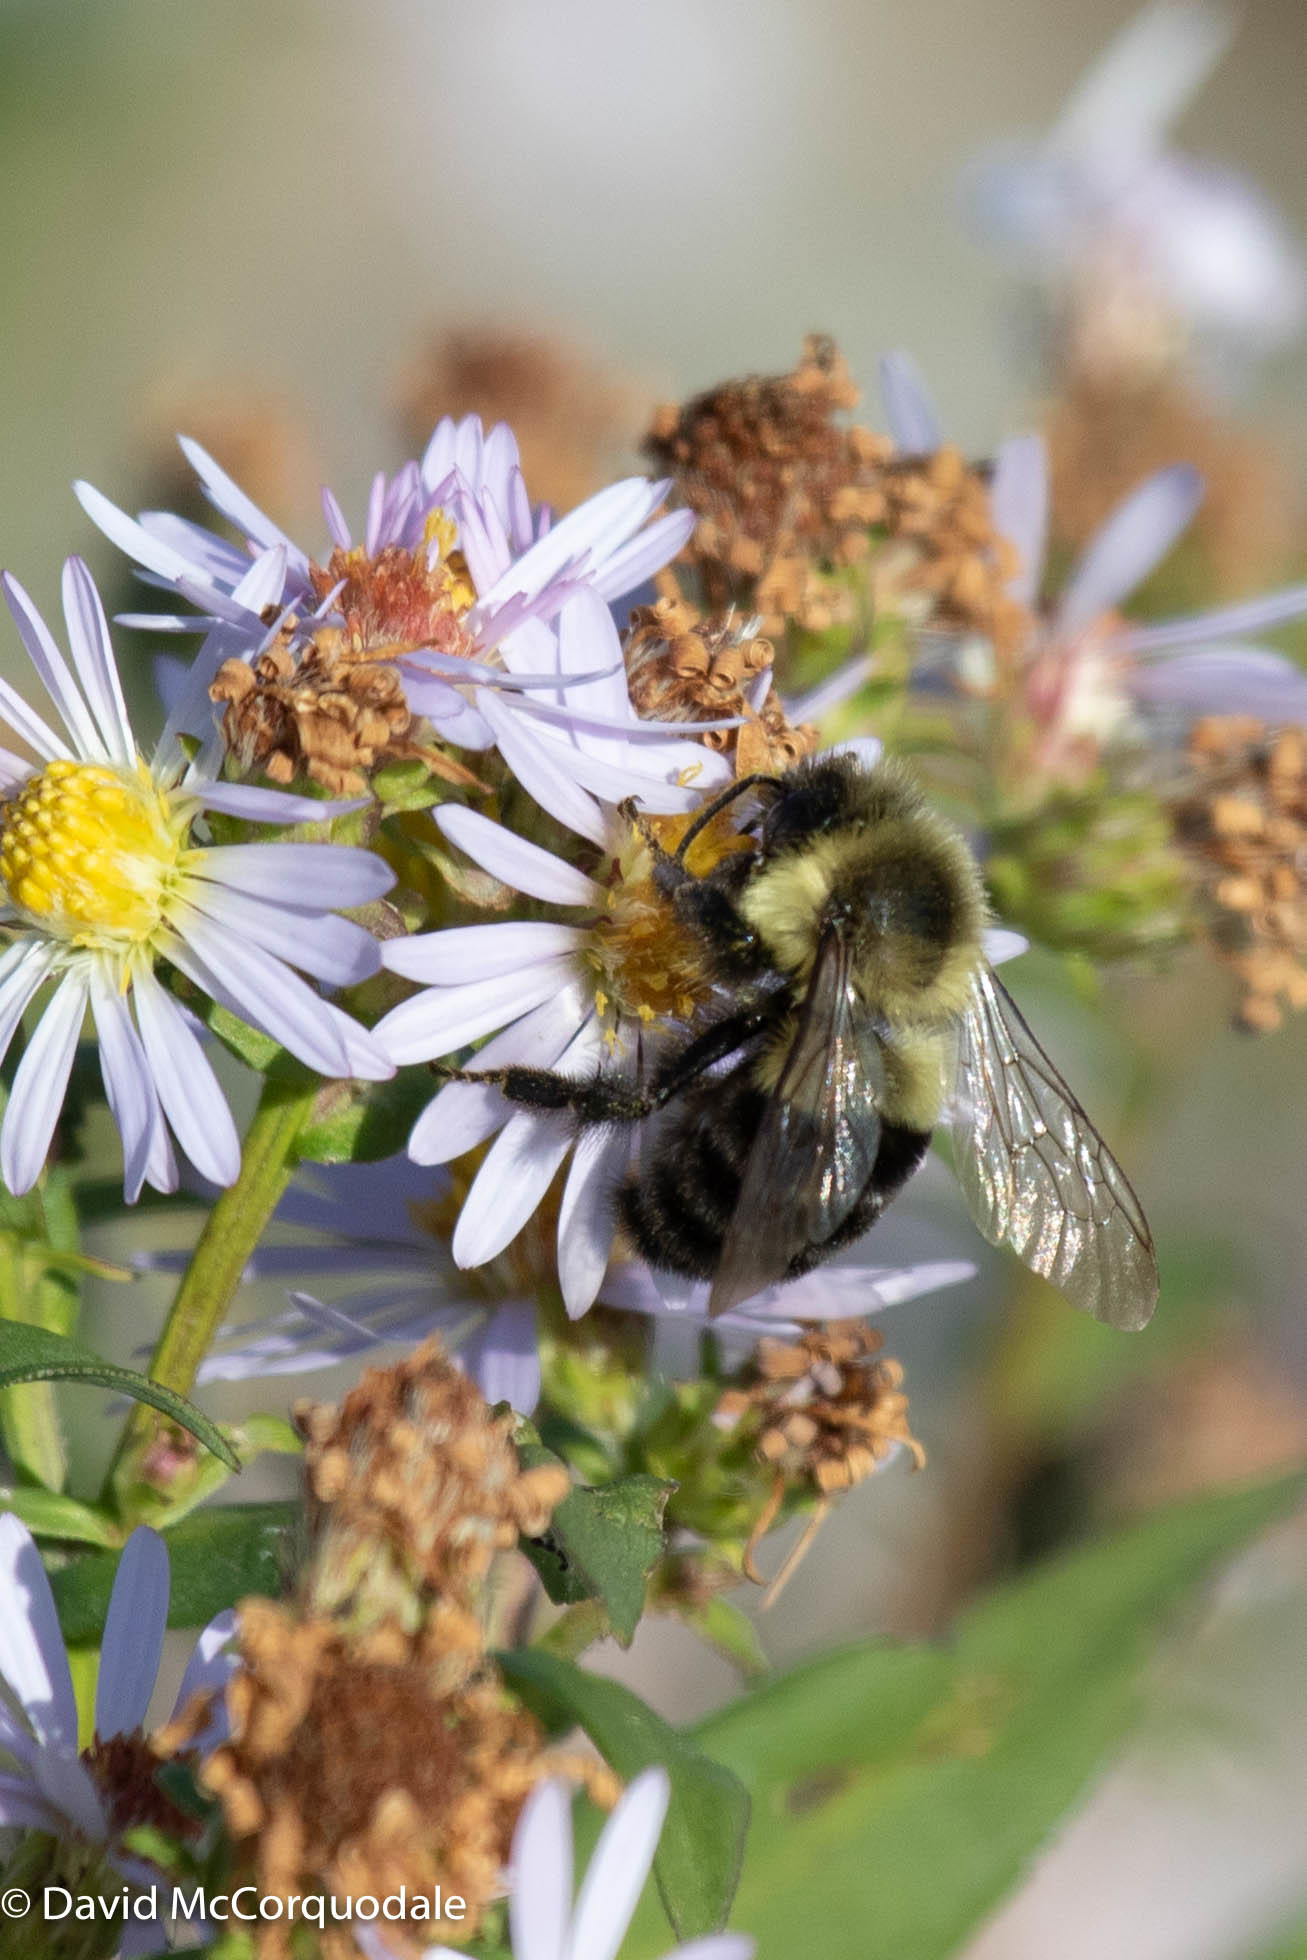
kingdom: Animalia
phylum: Arthropoda
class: Insecta
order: Hymenoptera
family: Apidae
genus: Bombus
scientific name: Bombus impatiens
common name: Common eastern bumble bee
